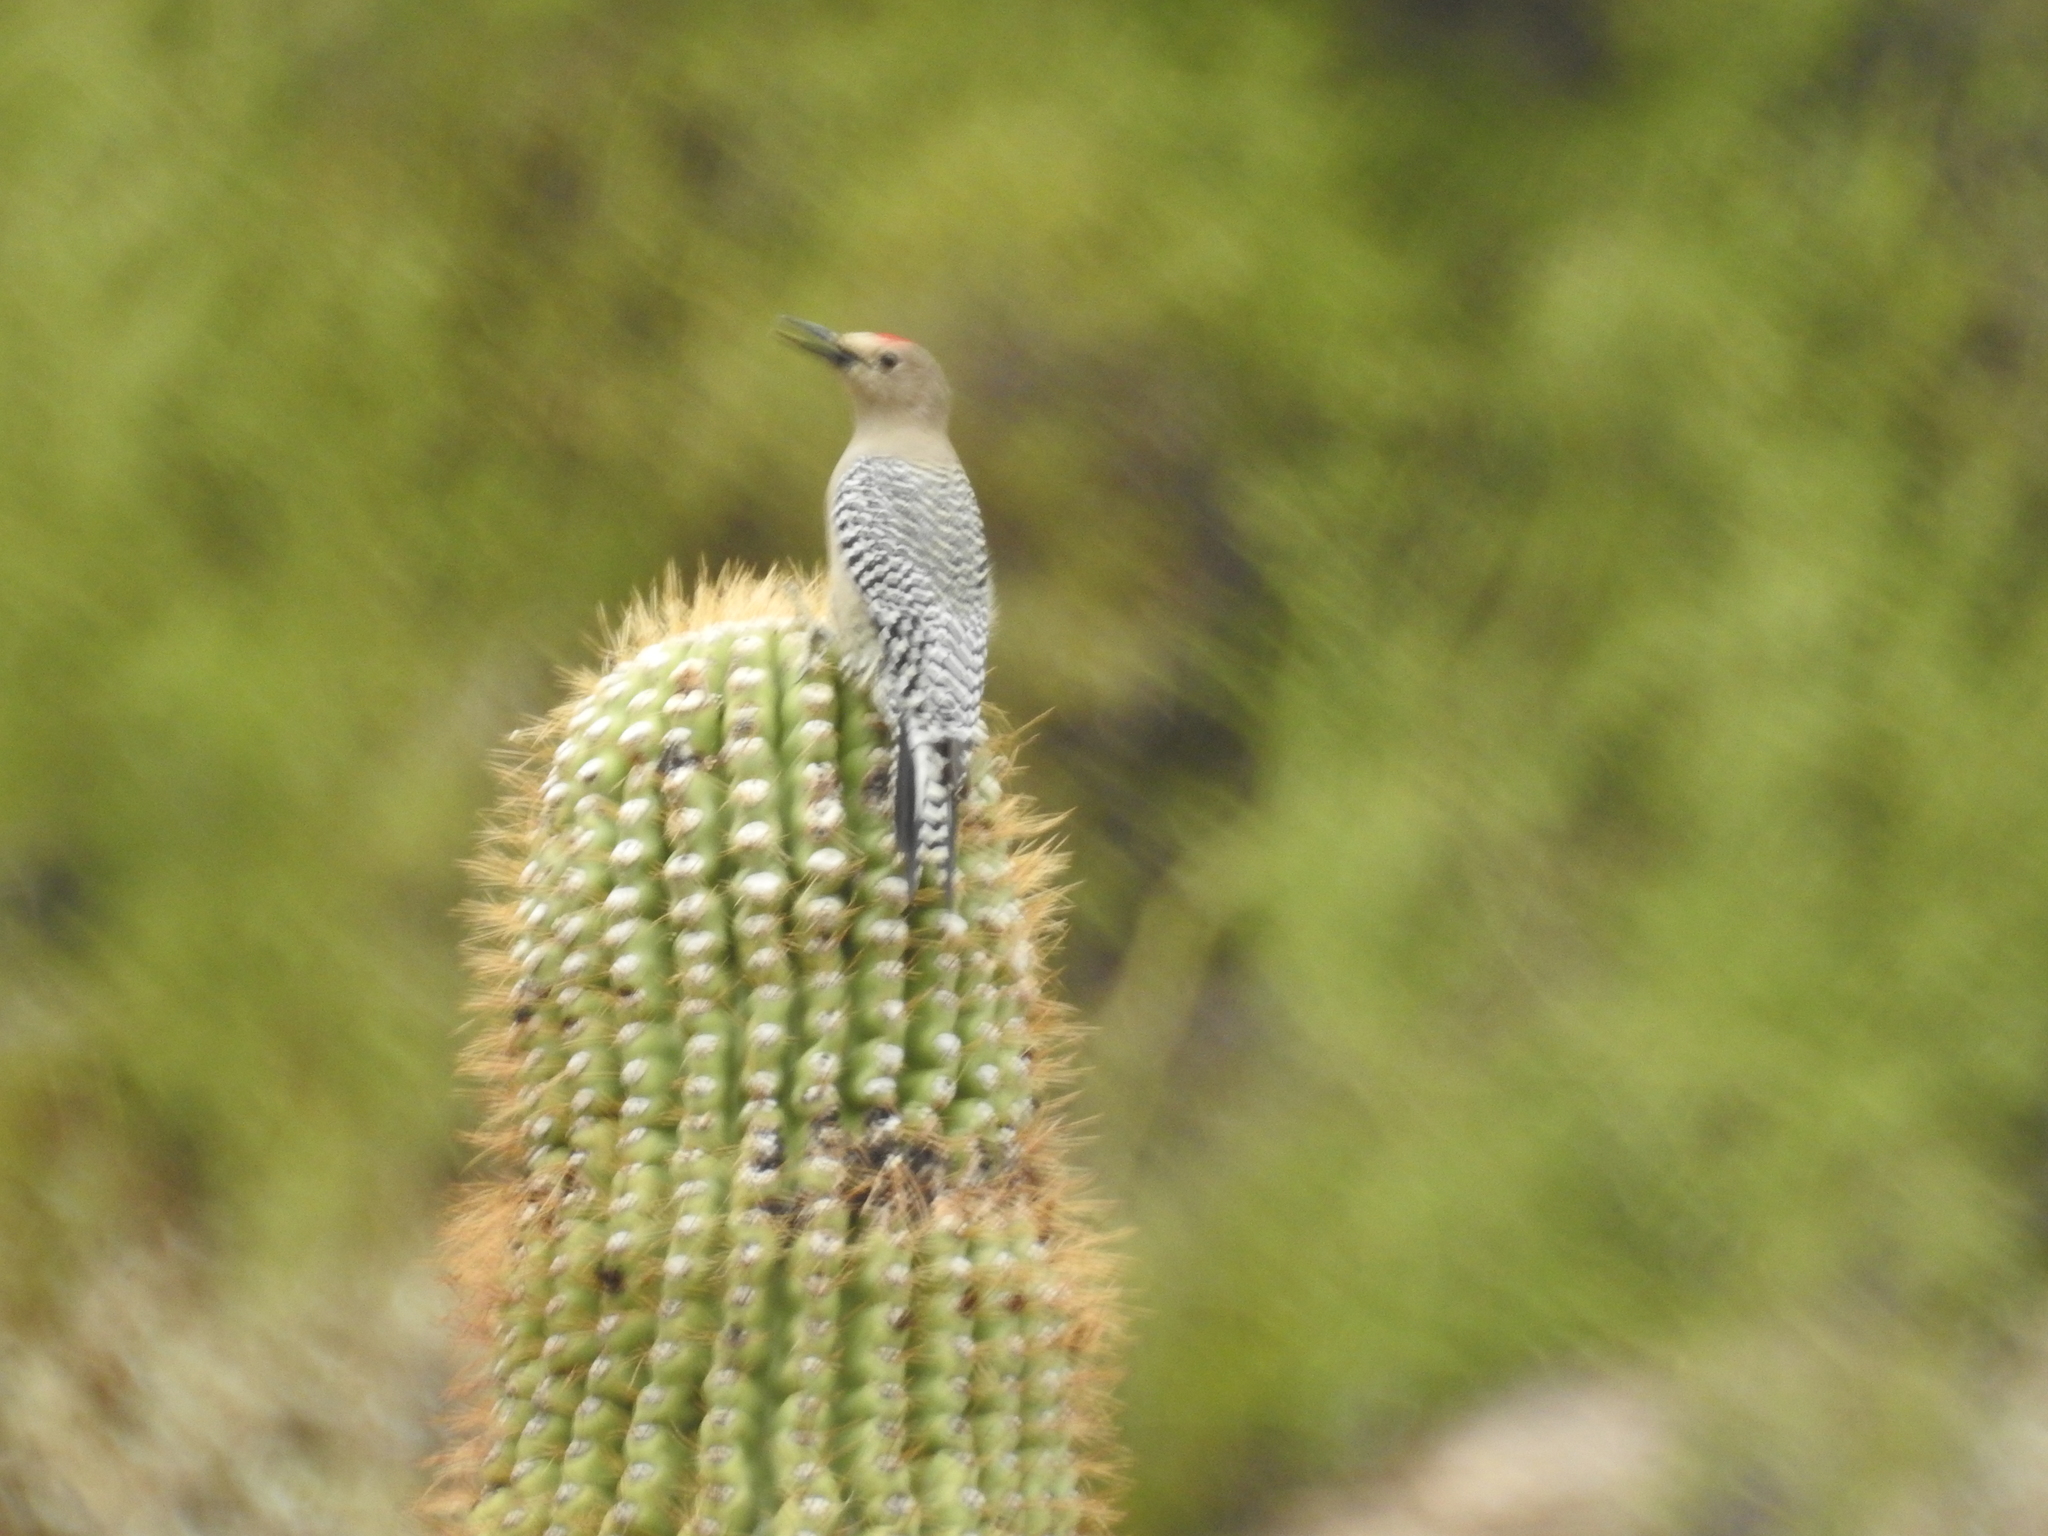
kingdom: Animalia
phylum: Chordata
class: Aves
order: Piciformes
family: Picidae
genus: Melanerpes
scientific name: Melanerpes uropygialis
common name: Gila woodpecker
